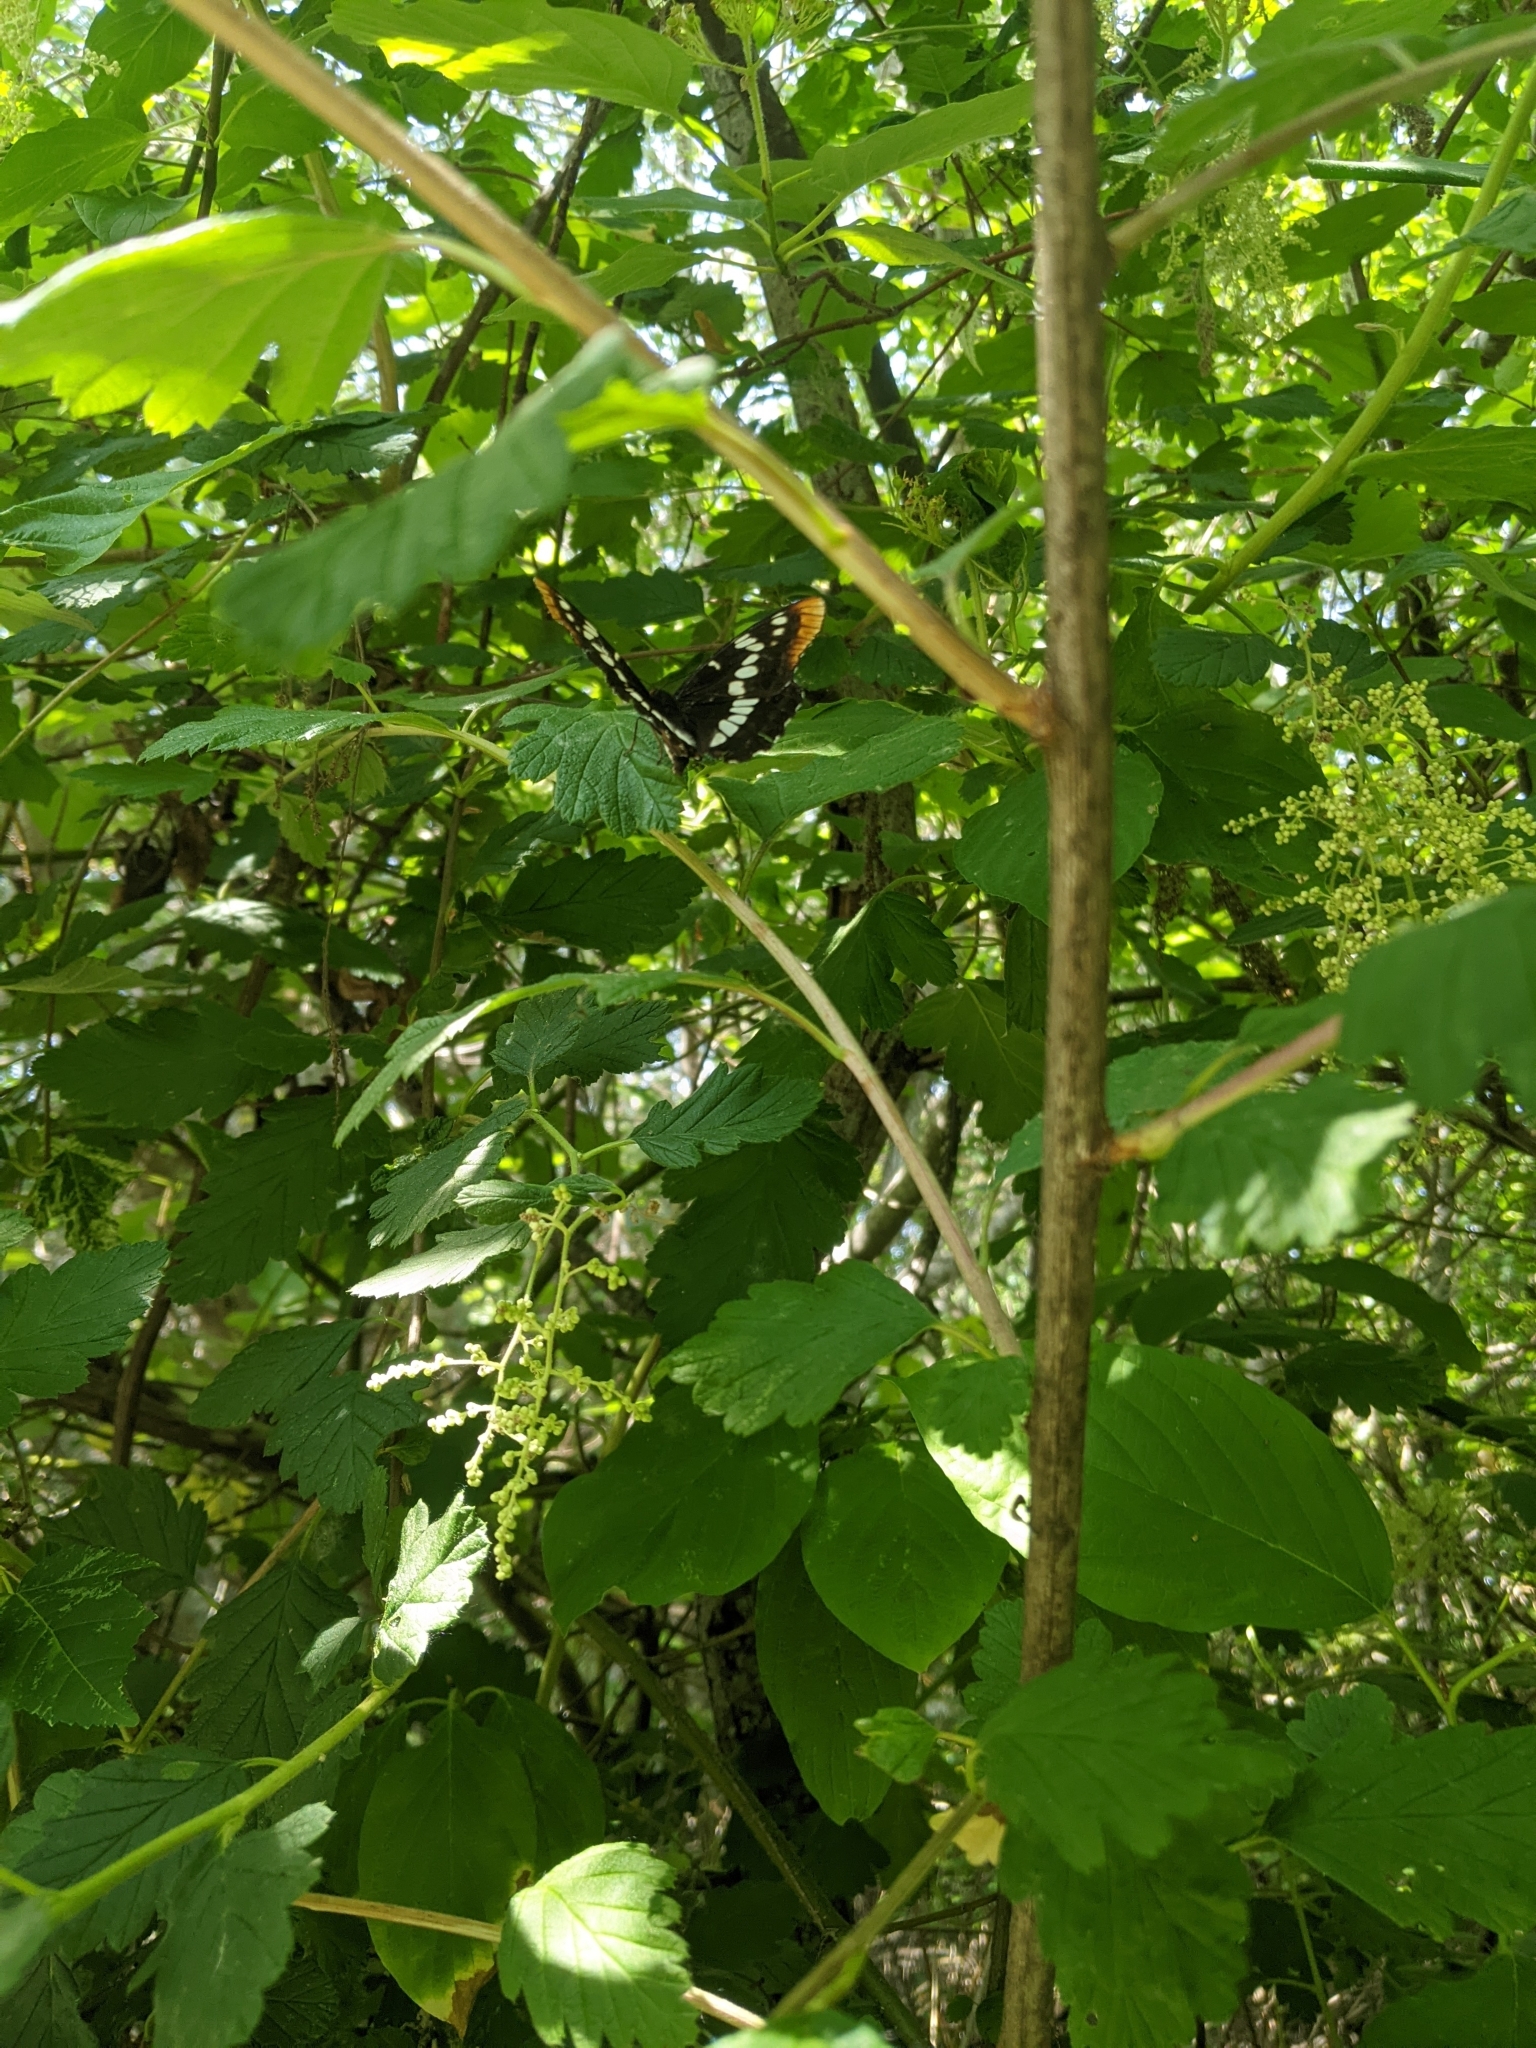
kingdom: Animalia
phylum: Arthropoda
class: Insecta
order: Lepidoptera
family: Nymphalidae
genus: Limenitis
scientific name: Limenitis lorquini
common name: Lorquin's admiral
